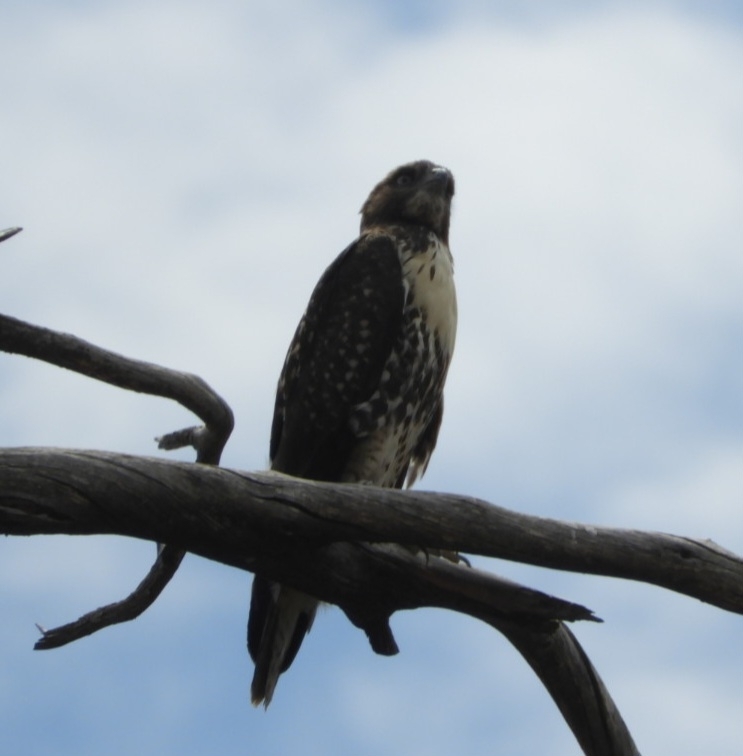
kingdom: Animalia
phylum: Chordata
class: Aves
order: Accipitriformes
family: Accipitridae
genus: Buteo
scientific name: Buteo jamaicensis
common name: Red-tailed hawk
